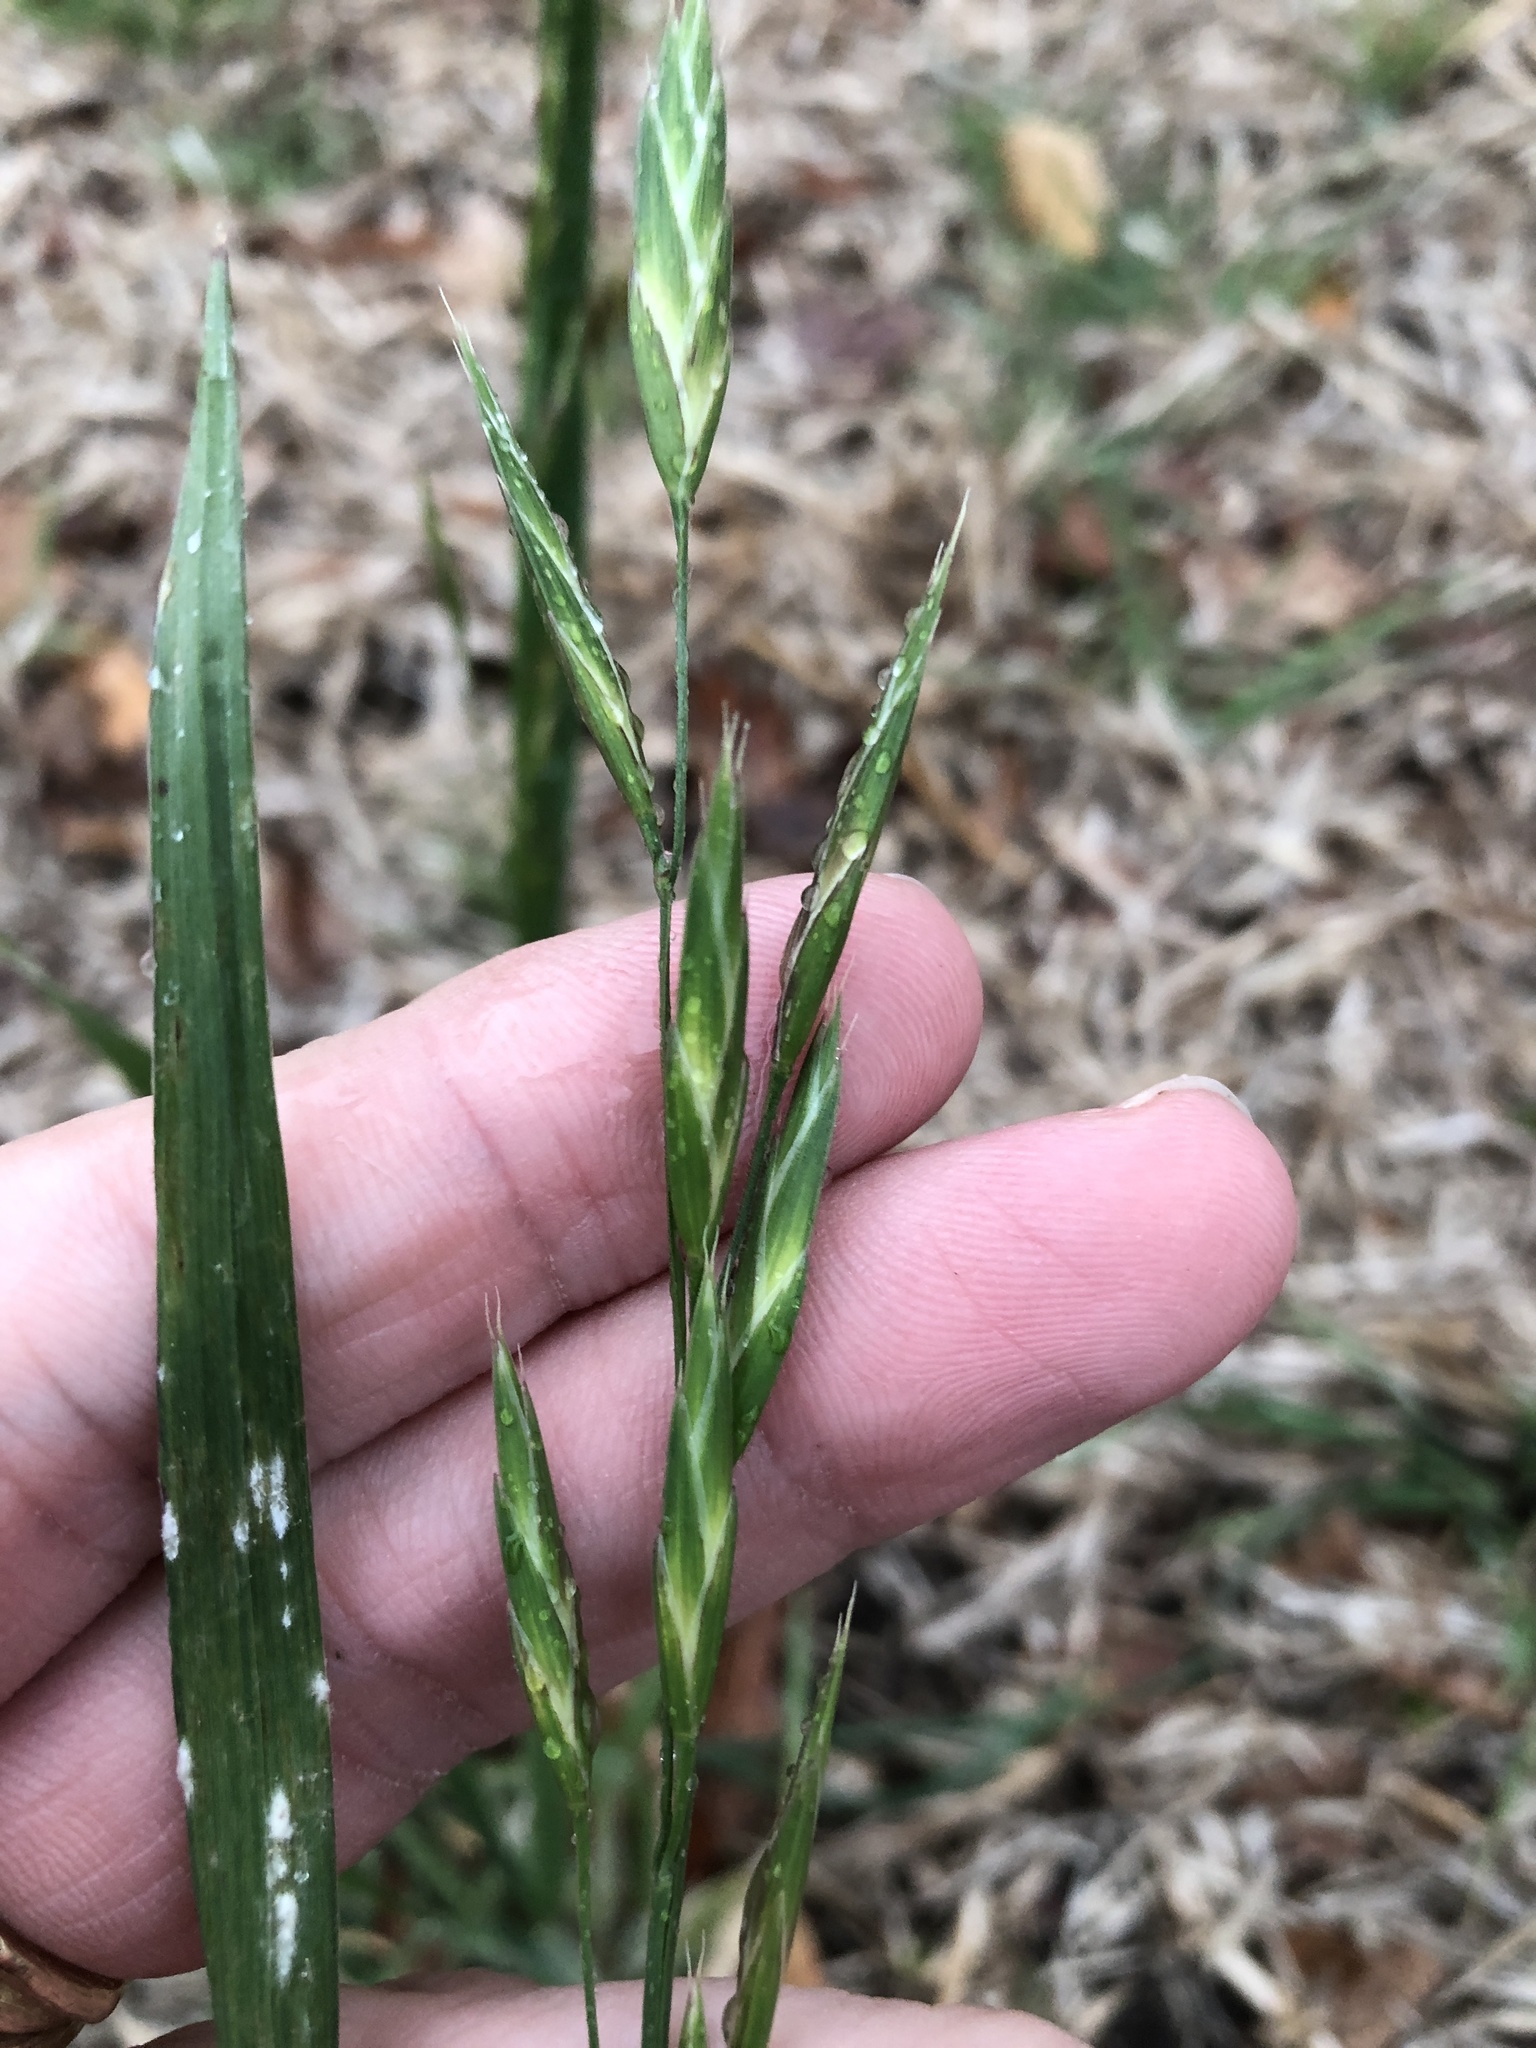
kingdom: Plantae
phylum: Tracheophyta
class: Liliopsida
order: Poales
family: Poaceae
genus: Bromus
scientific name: Bromus catharticus
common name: Rescuegrass
